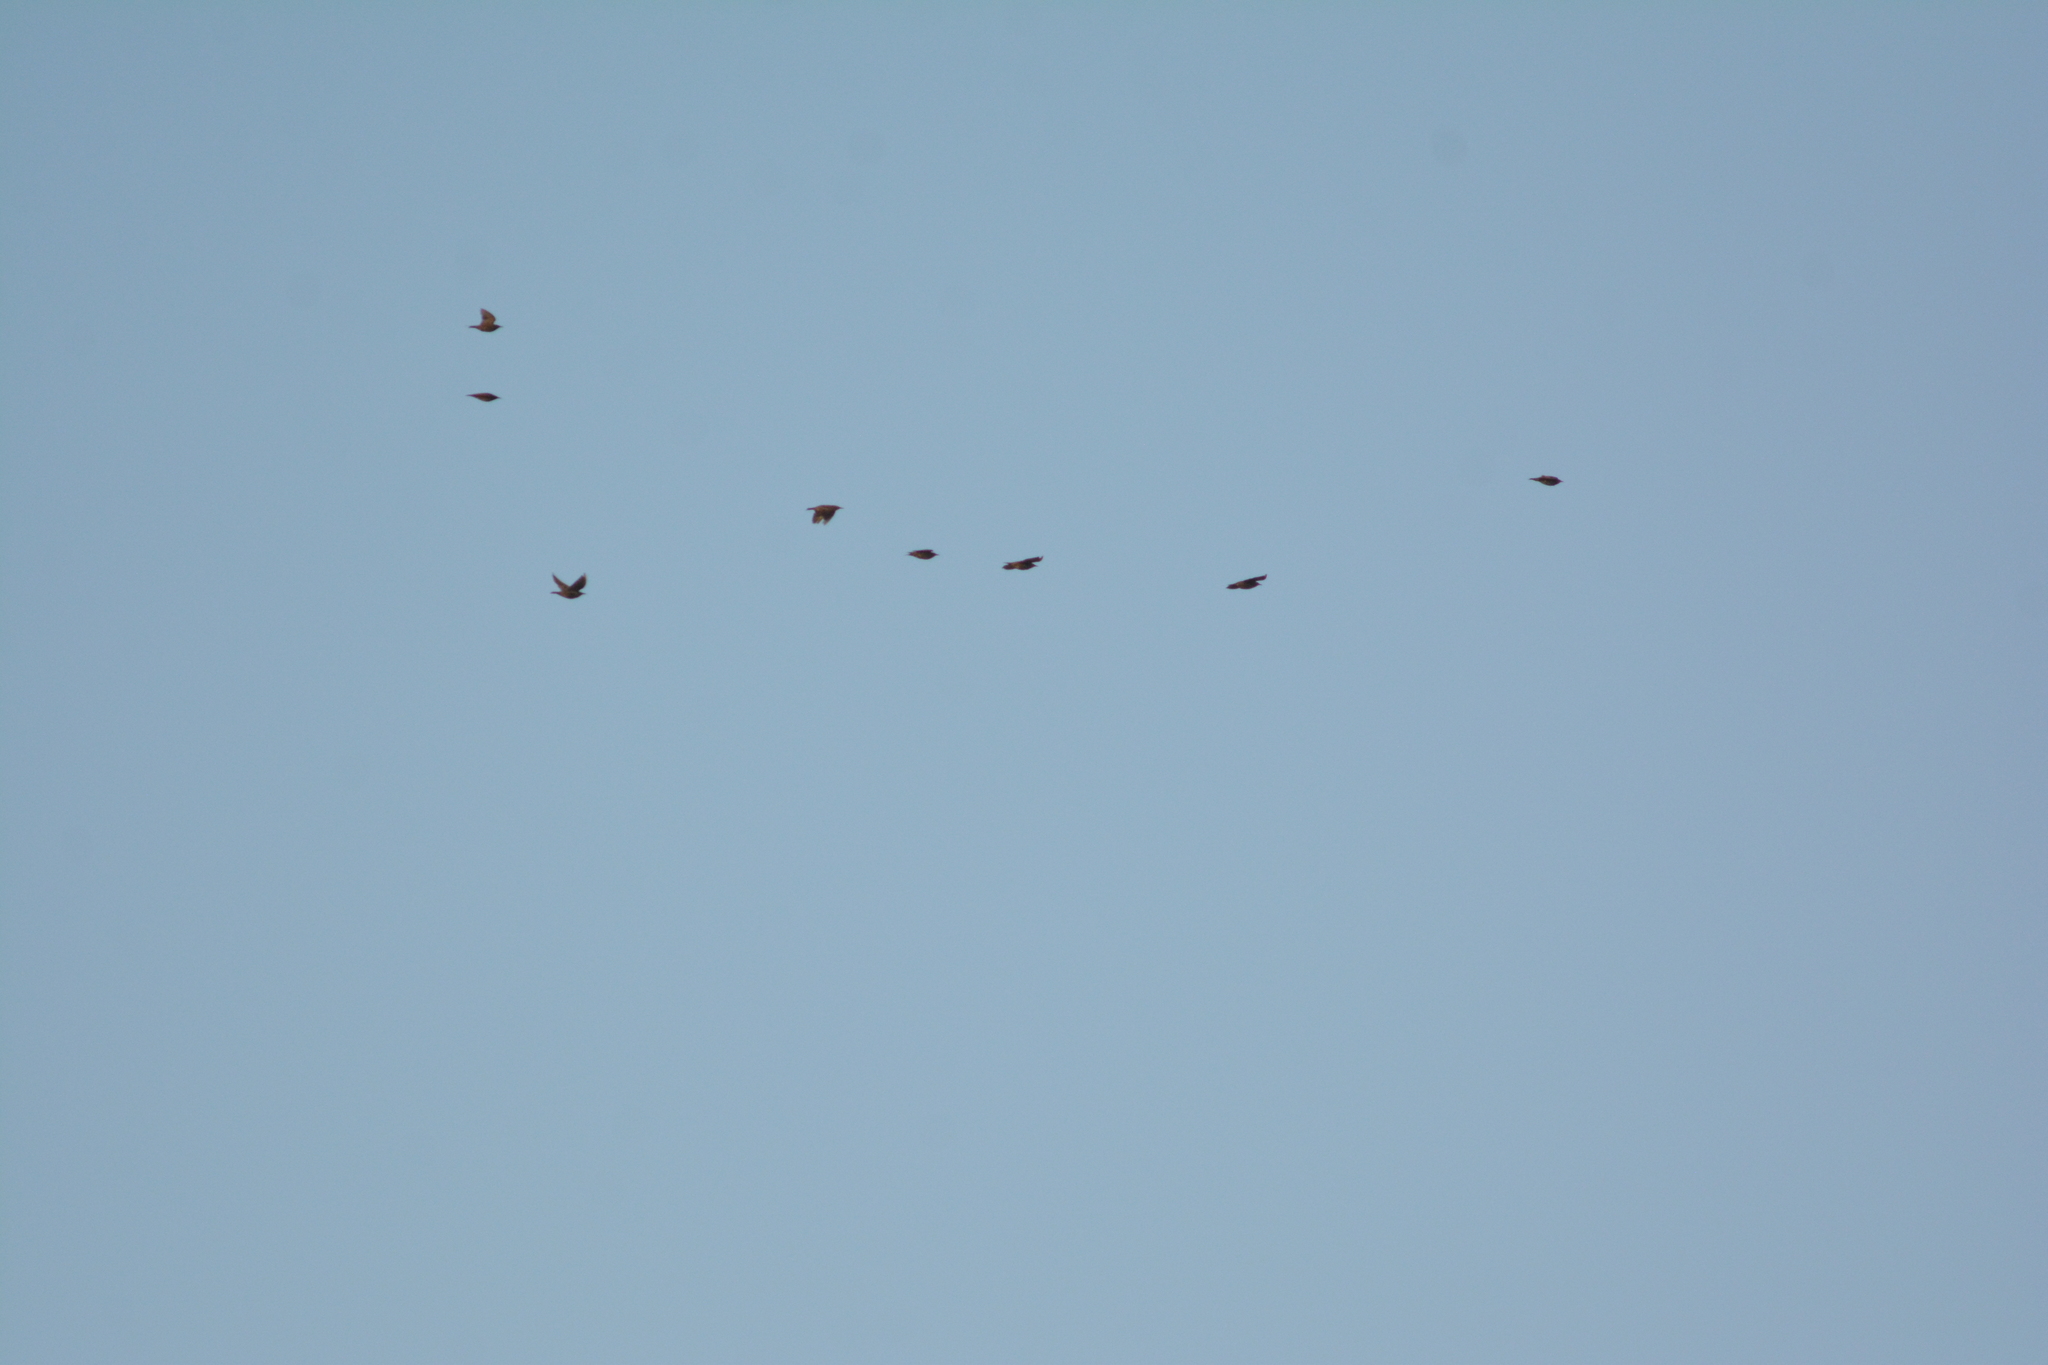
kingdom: Animalia
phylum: Chordata
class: Aves
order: Passeriformes
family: Sturnidae
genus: Sturnus
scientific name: Sturnus vulgaris
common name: Common starling
